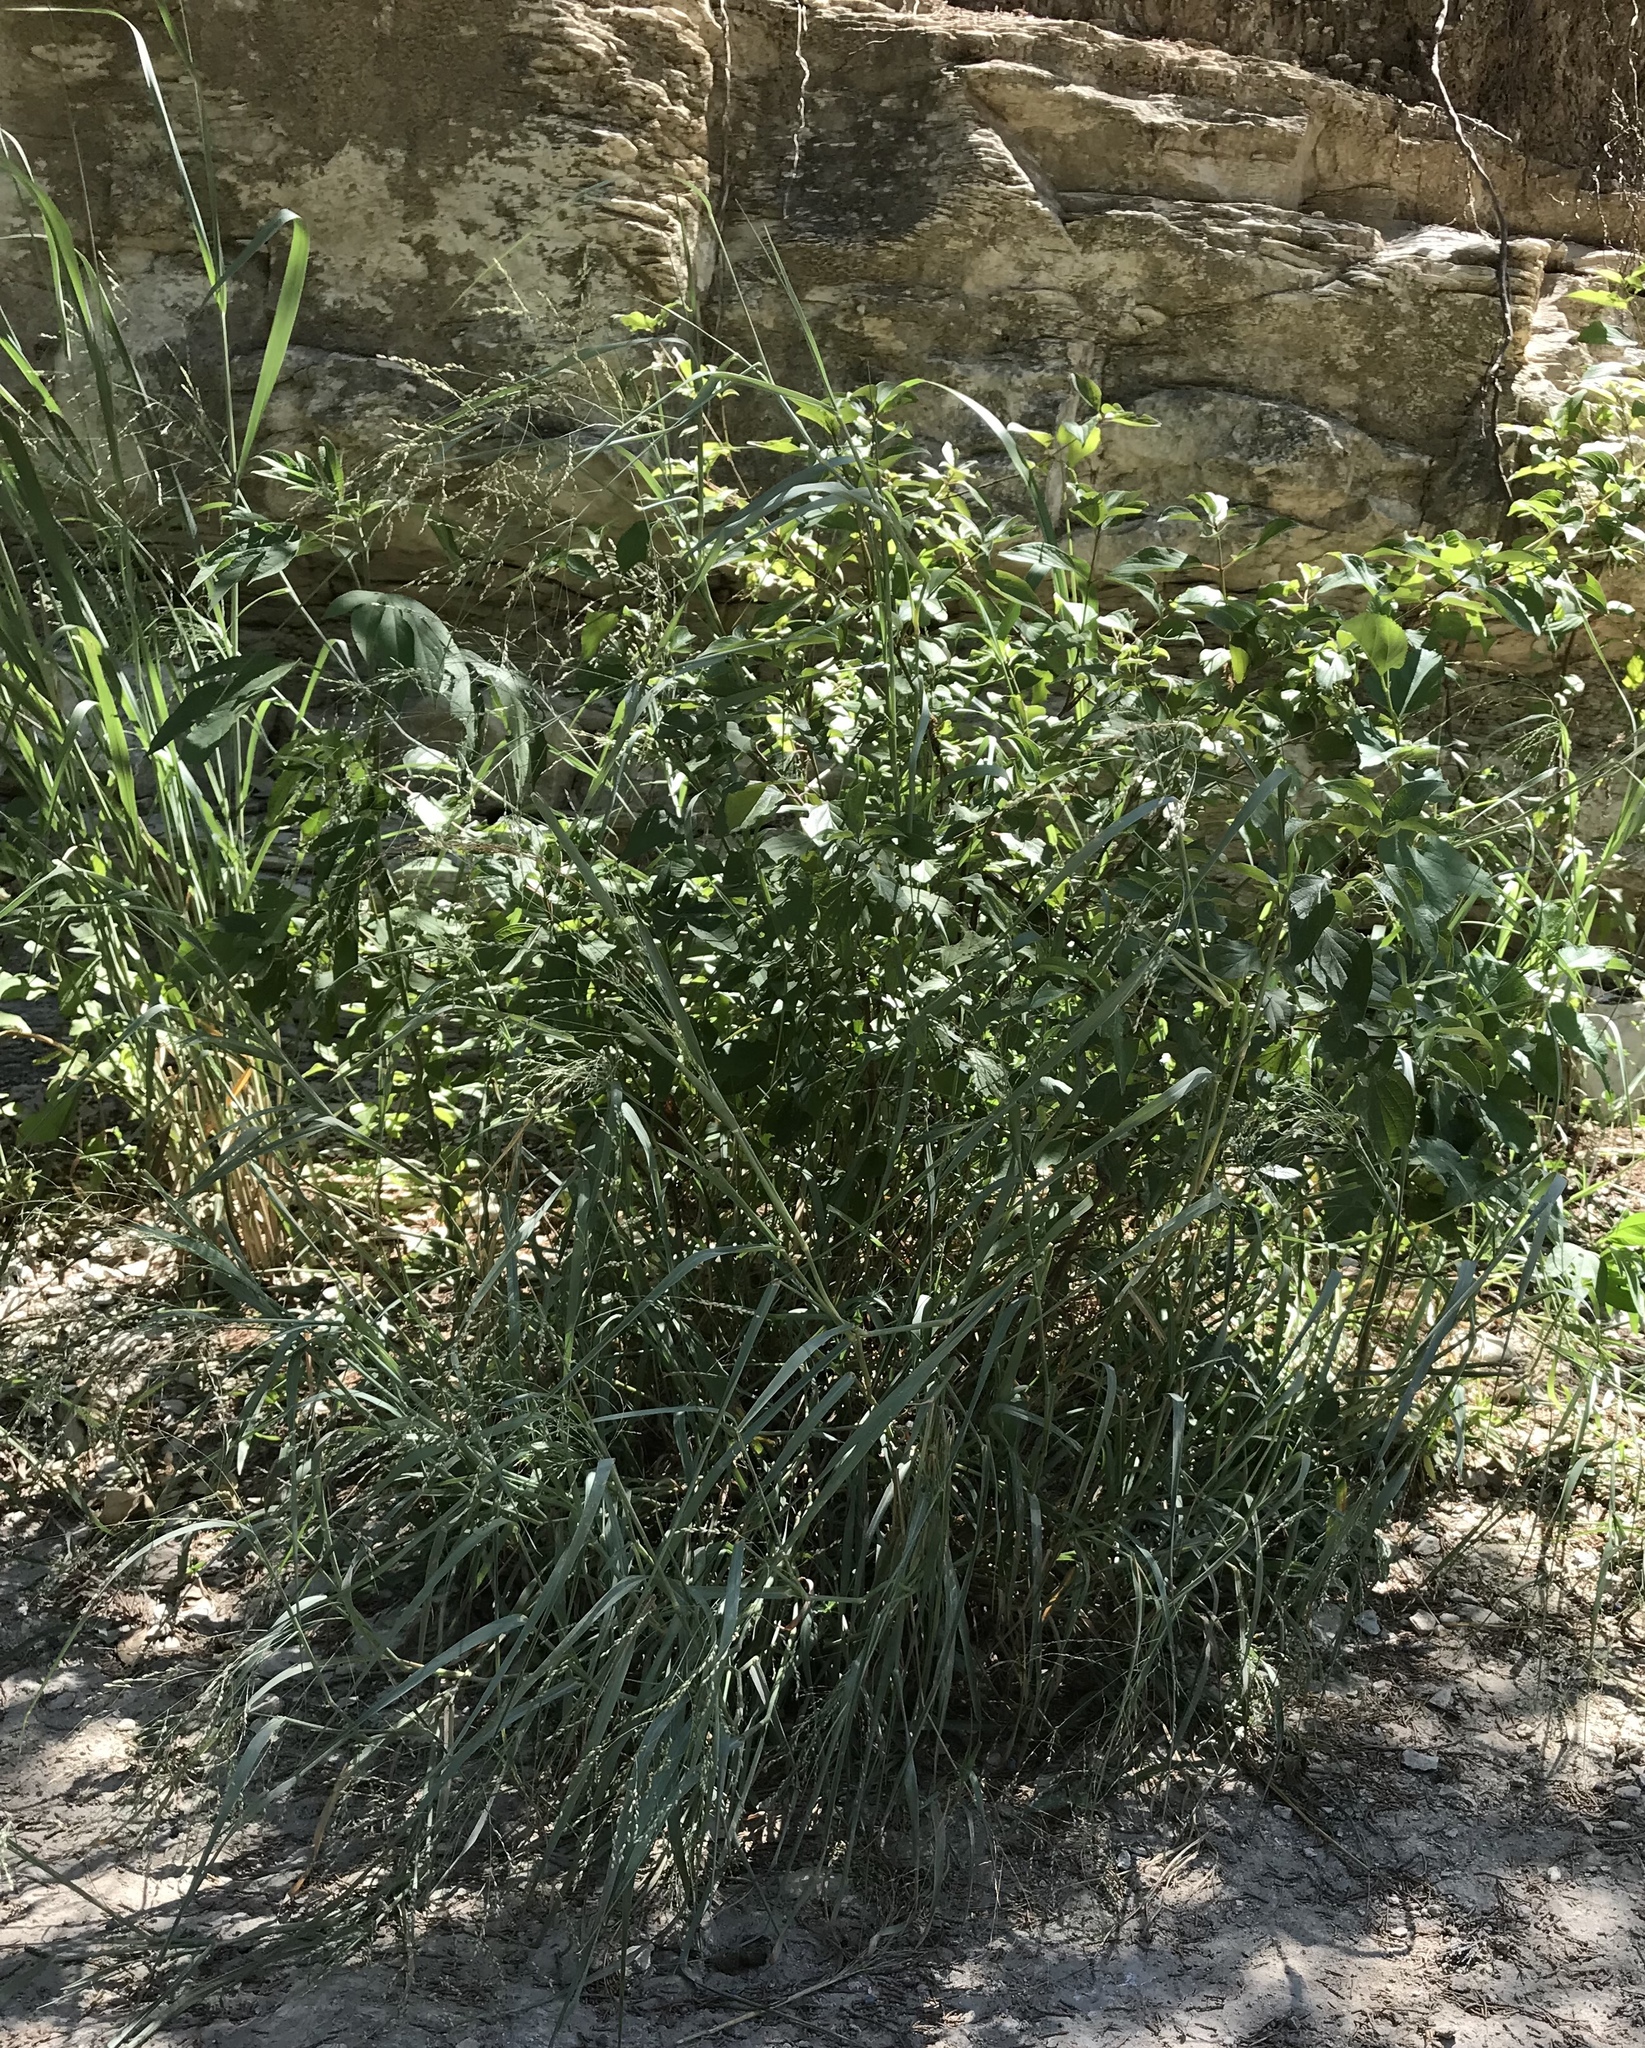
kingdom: Plantae
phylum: Tracheophyta
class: Liliopsida
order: Poales
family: Poaceae
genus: Panicum
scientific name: Panicum virgatum
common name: Switchgrass
